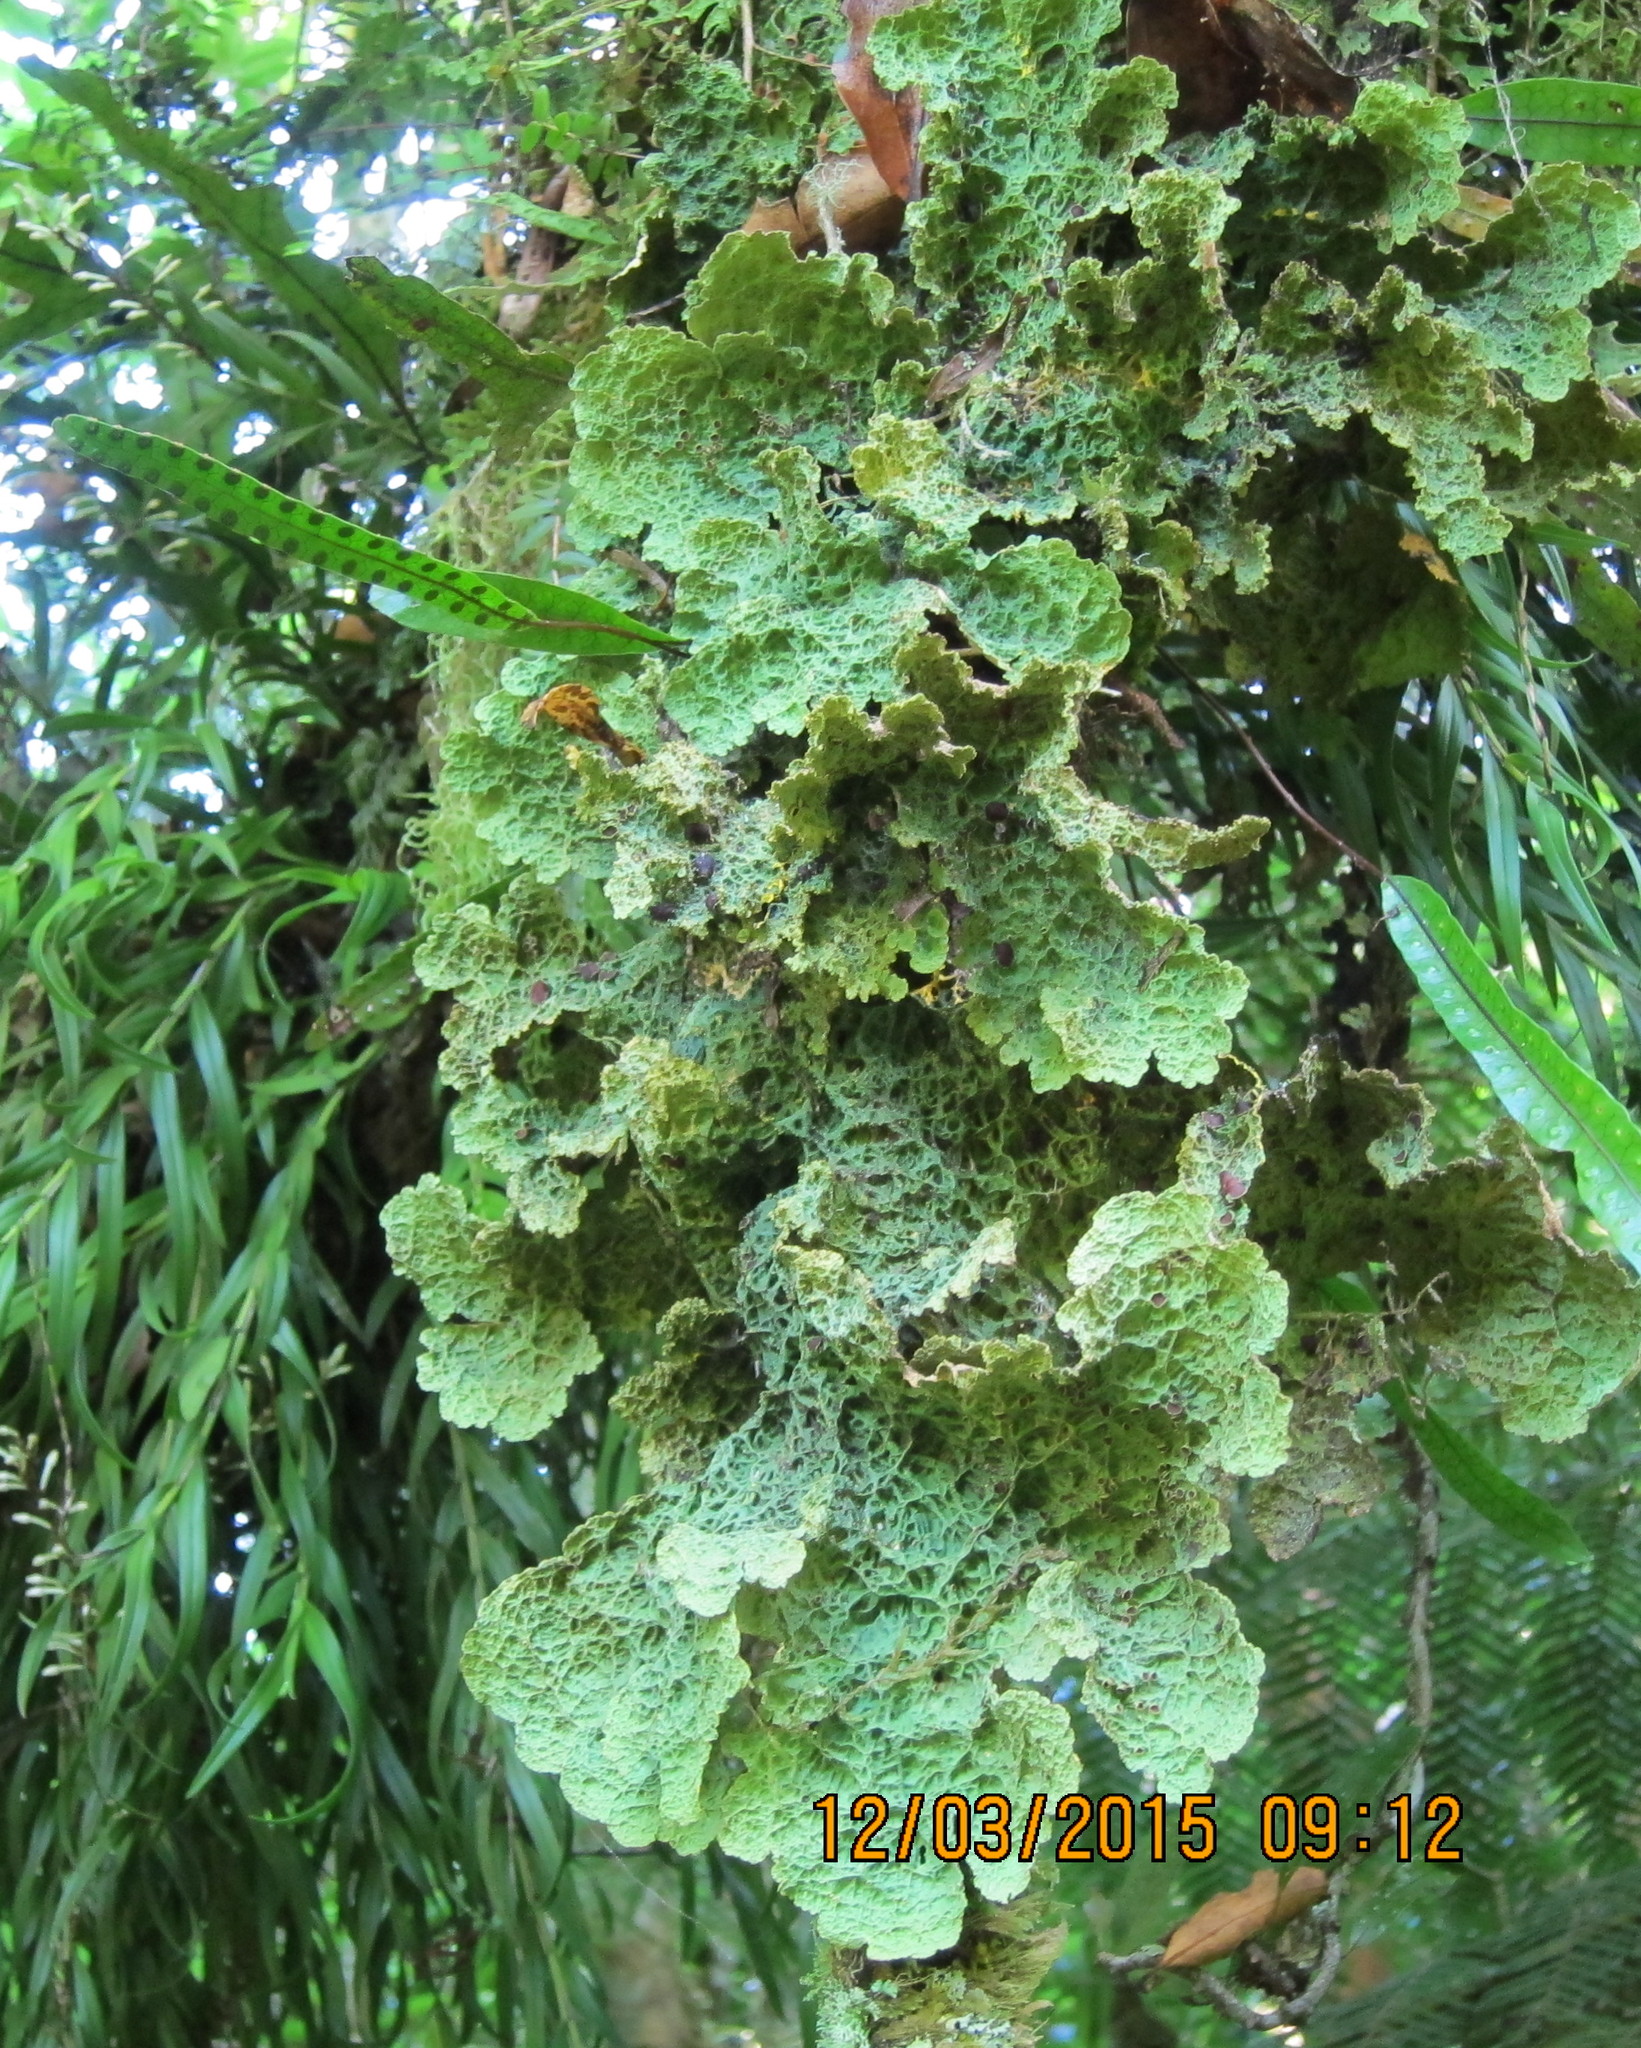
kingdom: Fungi
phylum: Ascomycota
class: Lecanoromycetes
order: Peltigerales
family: Lobariaceae
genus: Yarrumia
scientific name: Yarrumia coronata
